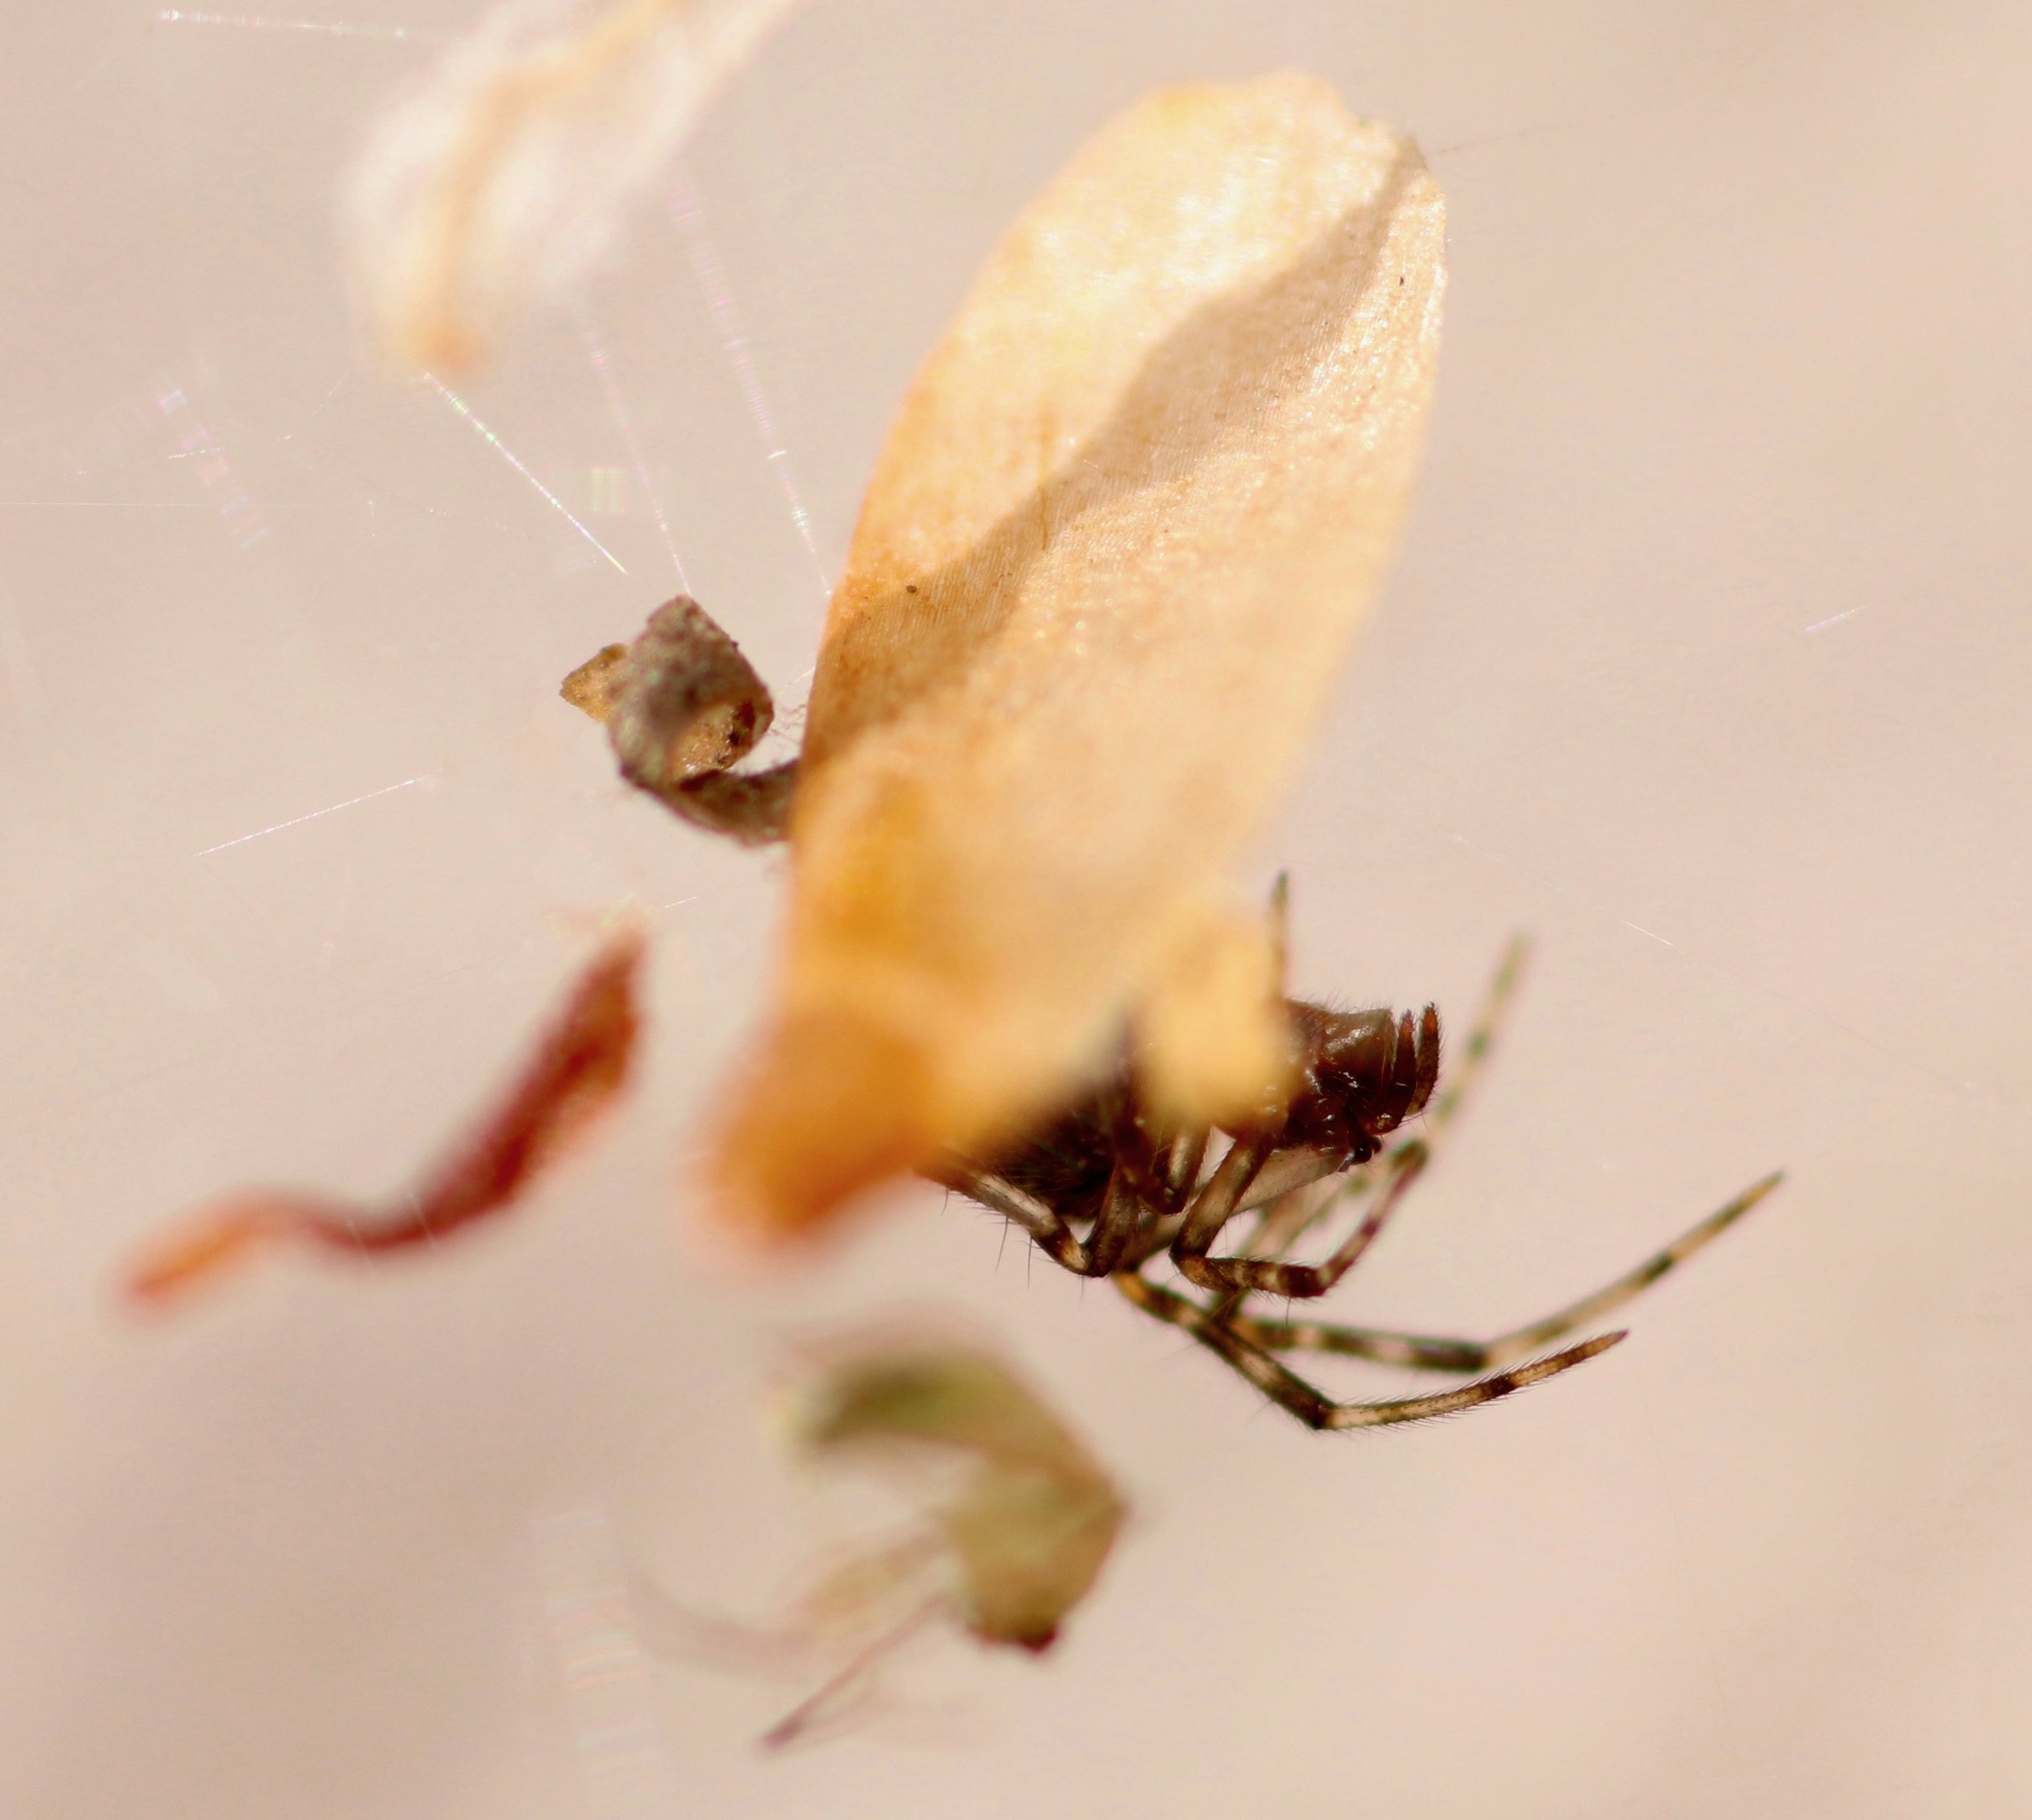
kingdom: Animalia
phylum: Arthropoda
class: Arachnida
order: Araneae
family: Theridiidae
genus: Parasteatoda
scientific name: Parasteatoda
